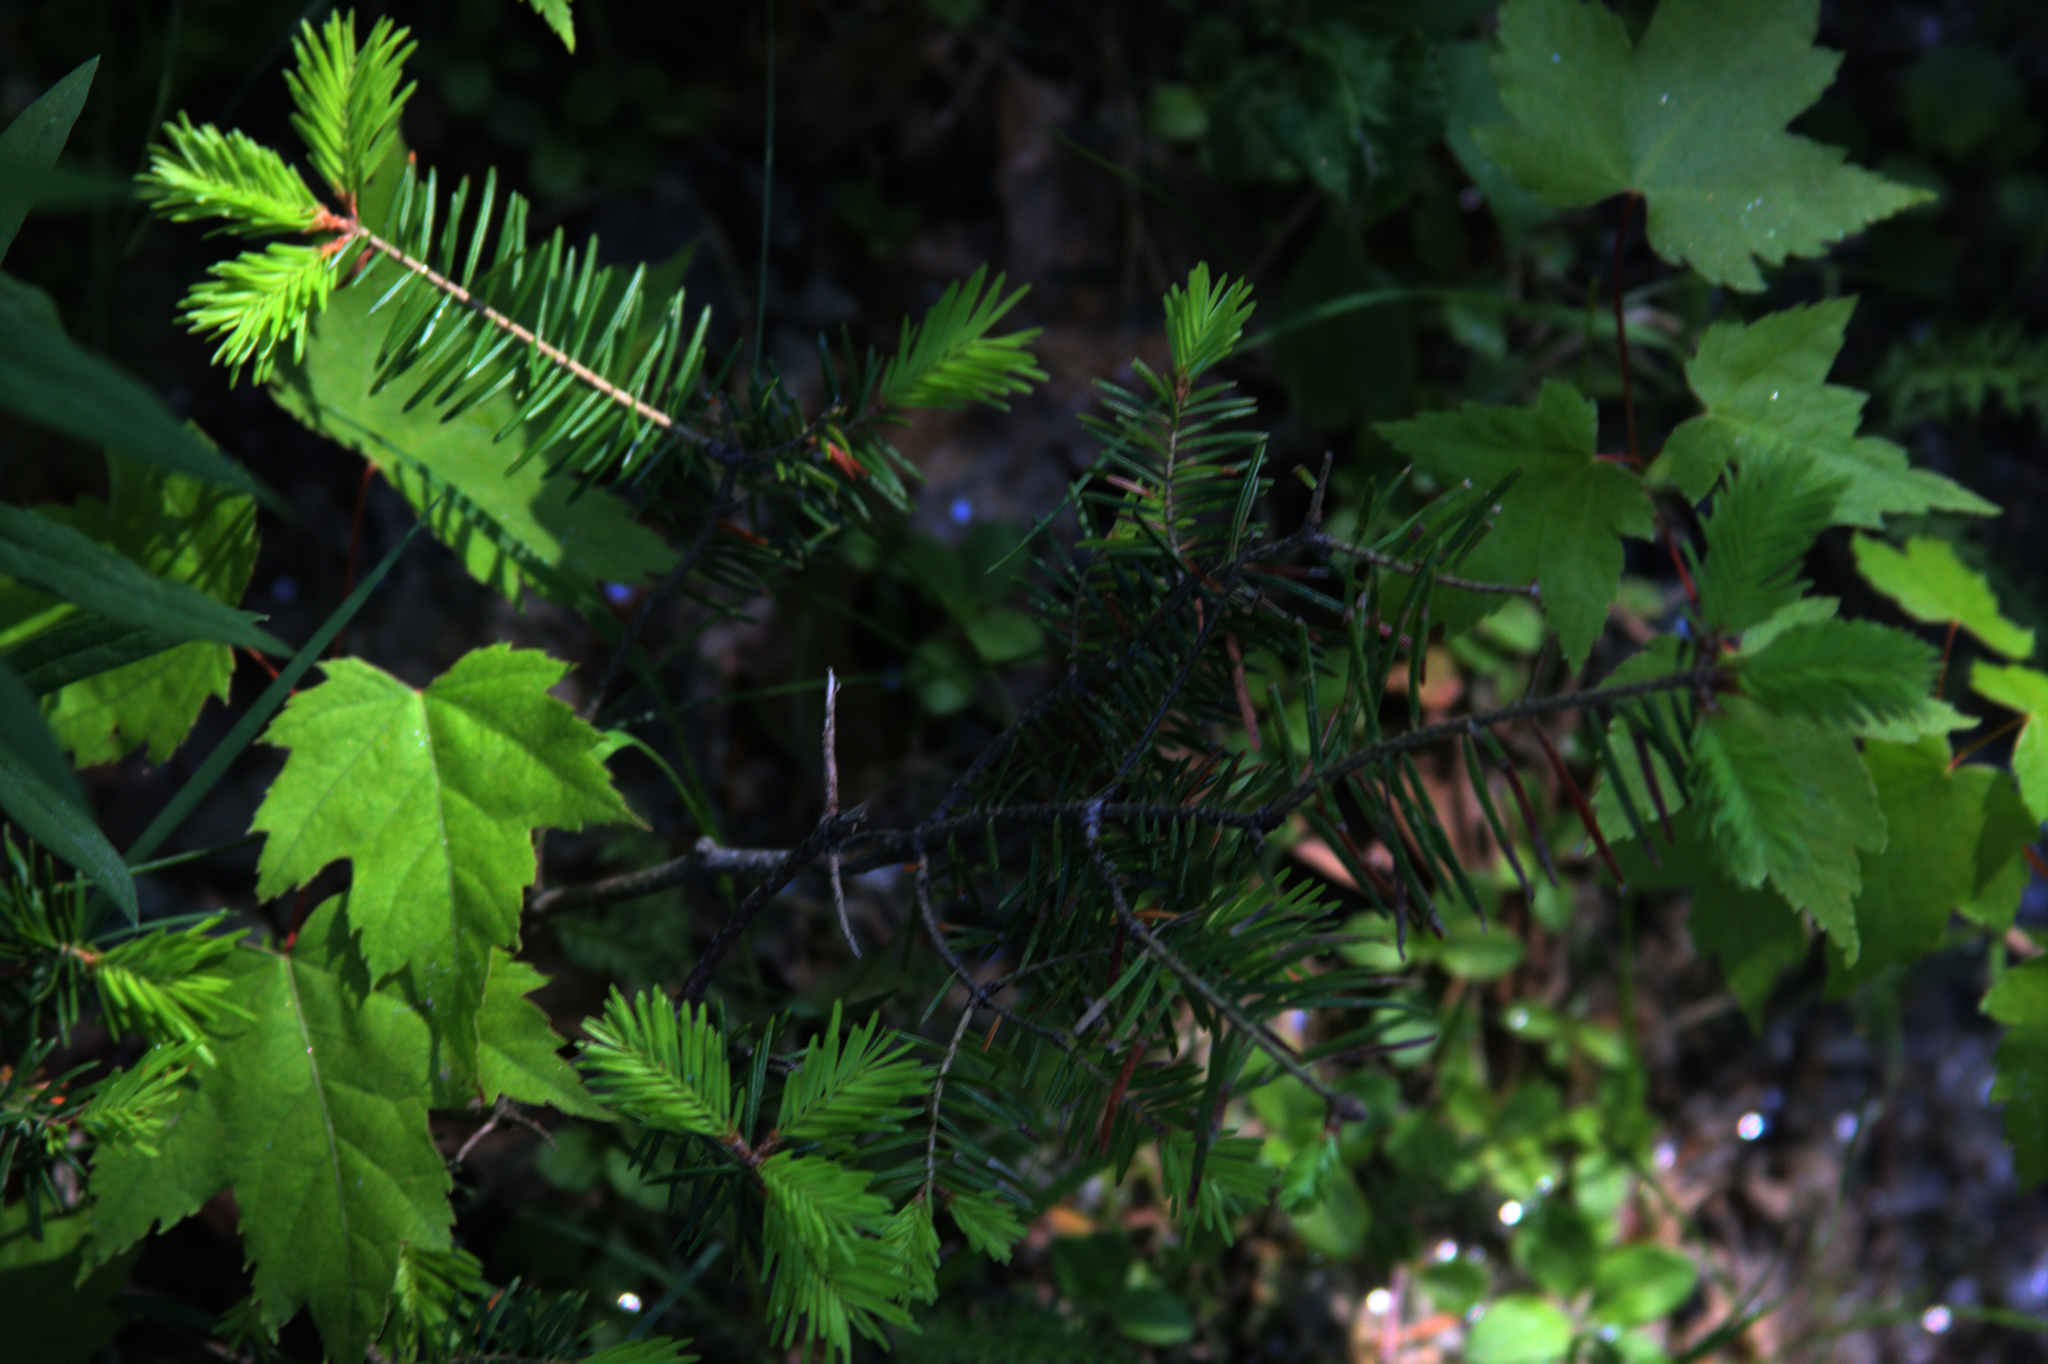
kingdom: Plantae
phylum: Tracheophyta
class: Pinopsida
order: Pinales
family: Pinaceae
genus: Abies
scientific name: Abies balsamea
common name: Balsam fir
